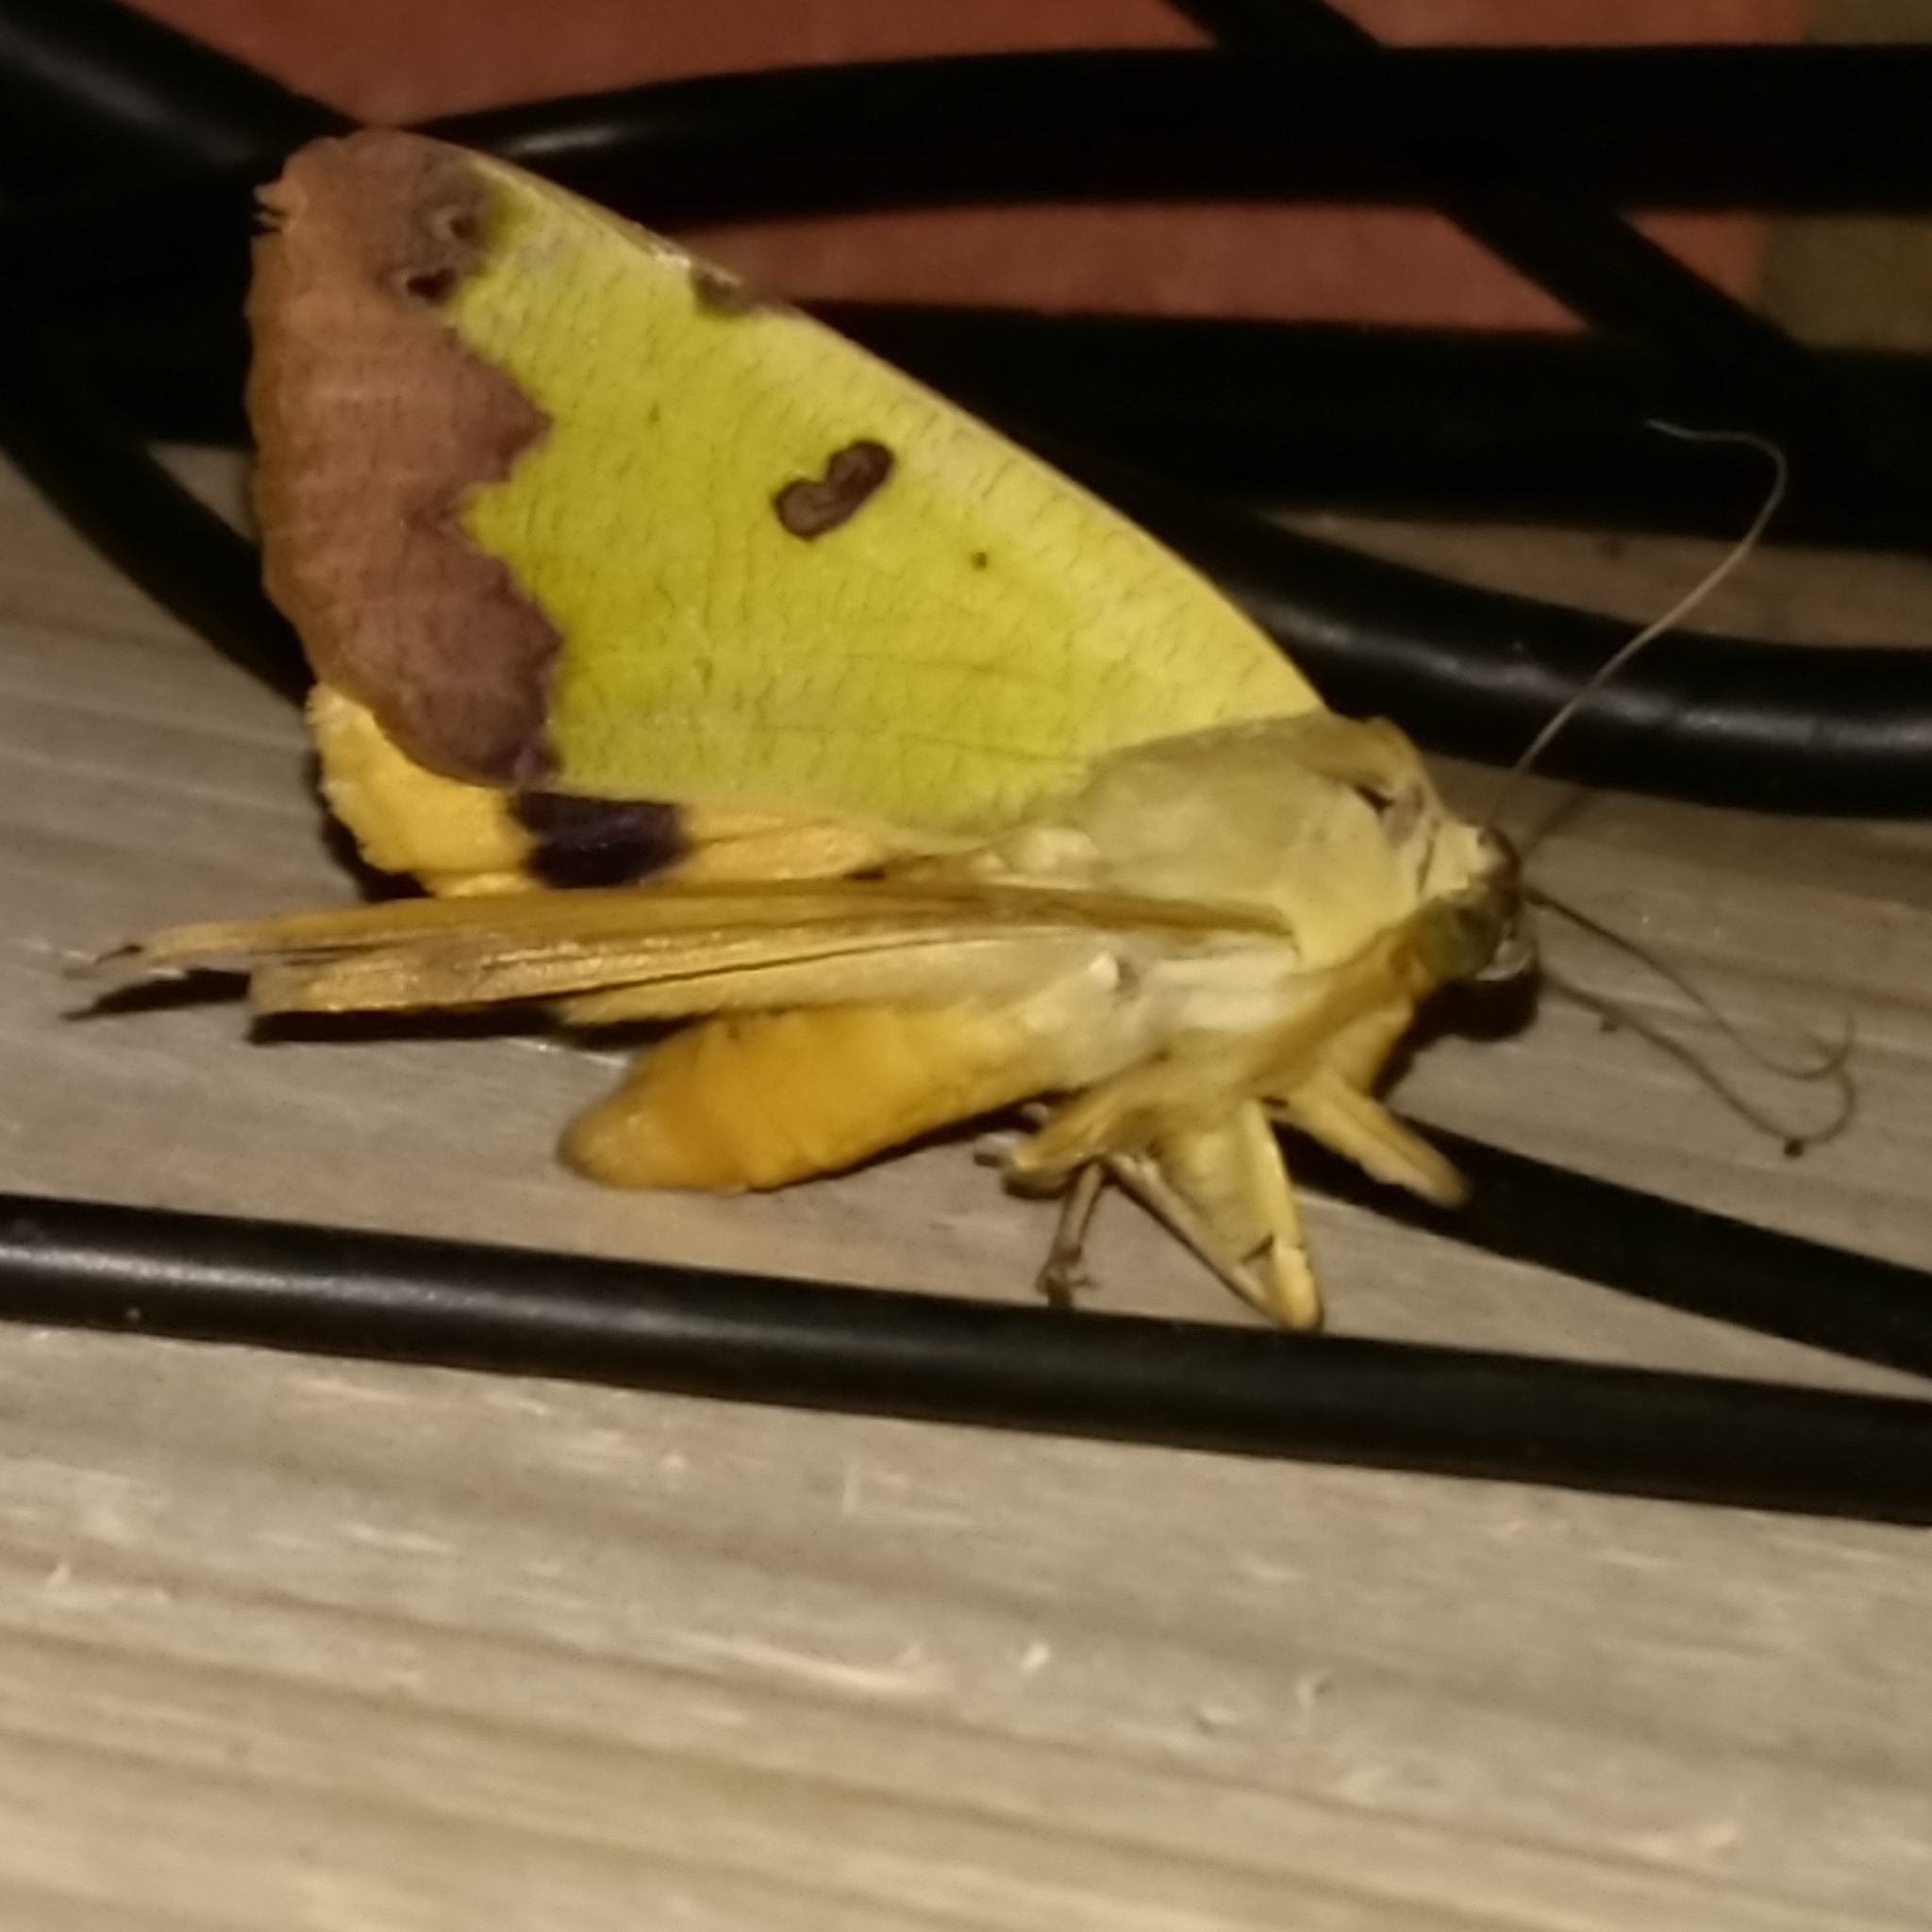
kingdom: Animalia
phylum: Arthropoda
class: Insecta
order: Lepidoptera
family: Erebidae
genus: Ophiusa
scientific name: Ophiusa tirhaca
